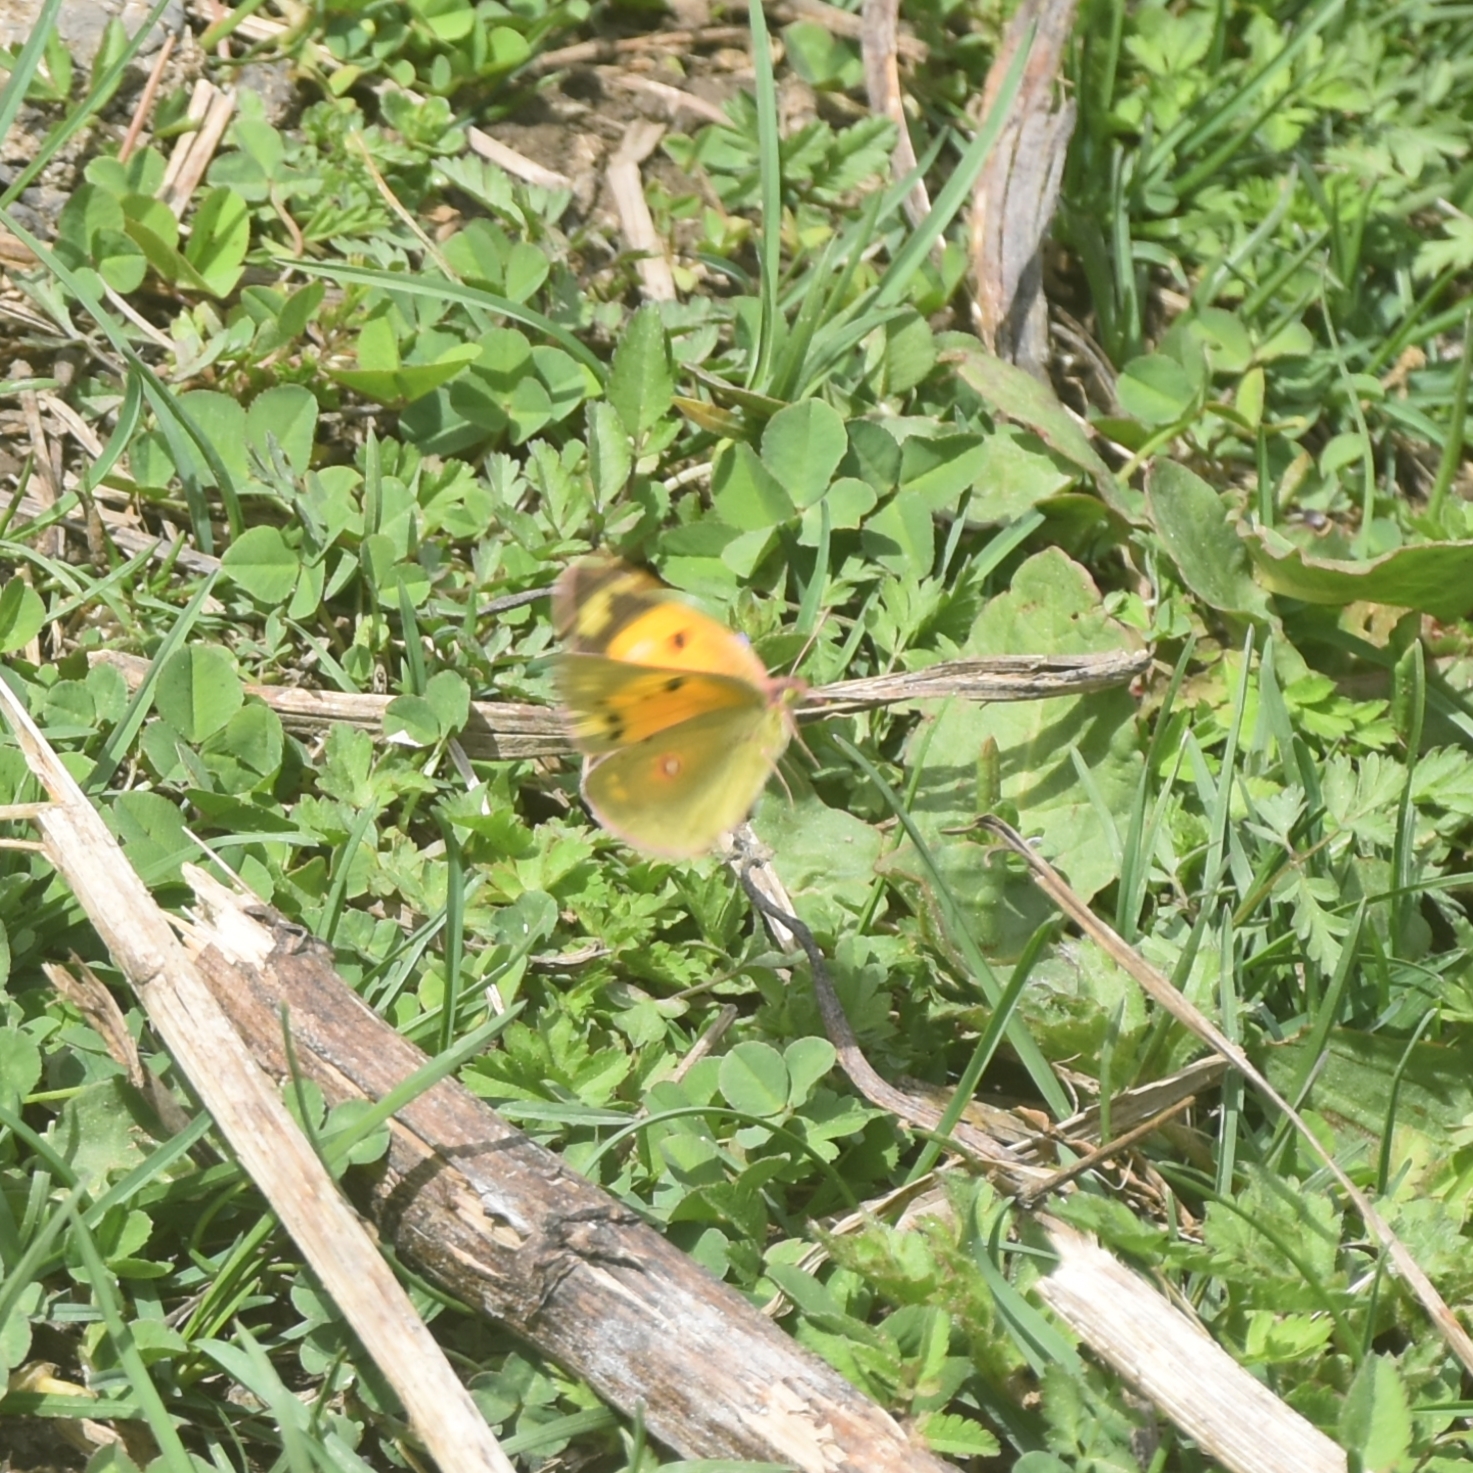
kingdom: Animalia
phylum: Arthropoda
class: Insecta
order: Lepidoptera
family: Pieridae
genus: Colias
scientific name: Colias fieldii
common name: Dark clouded yellow
